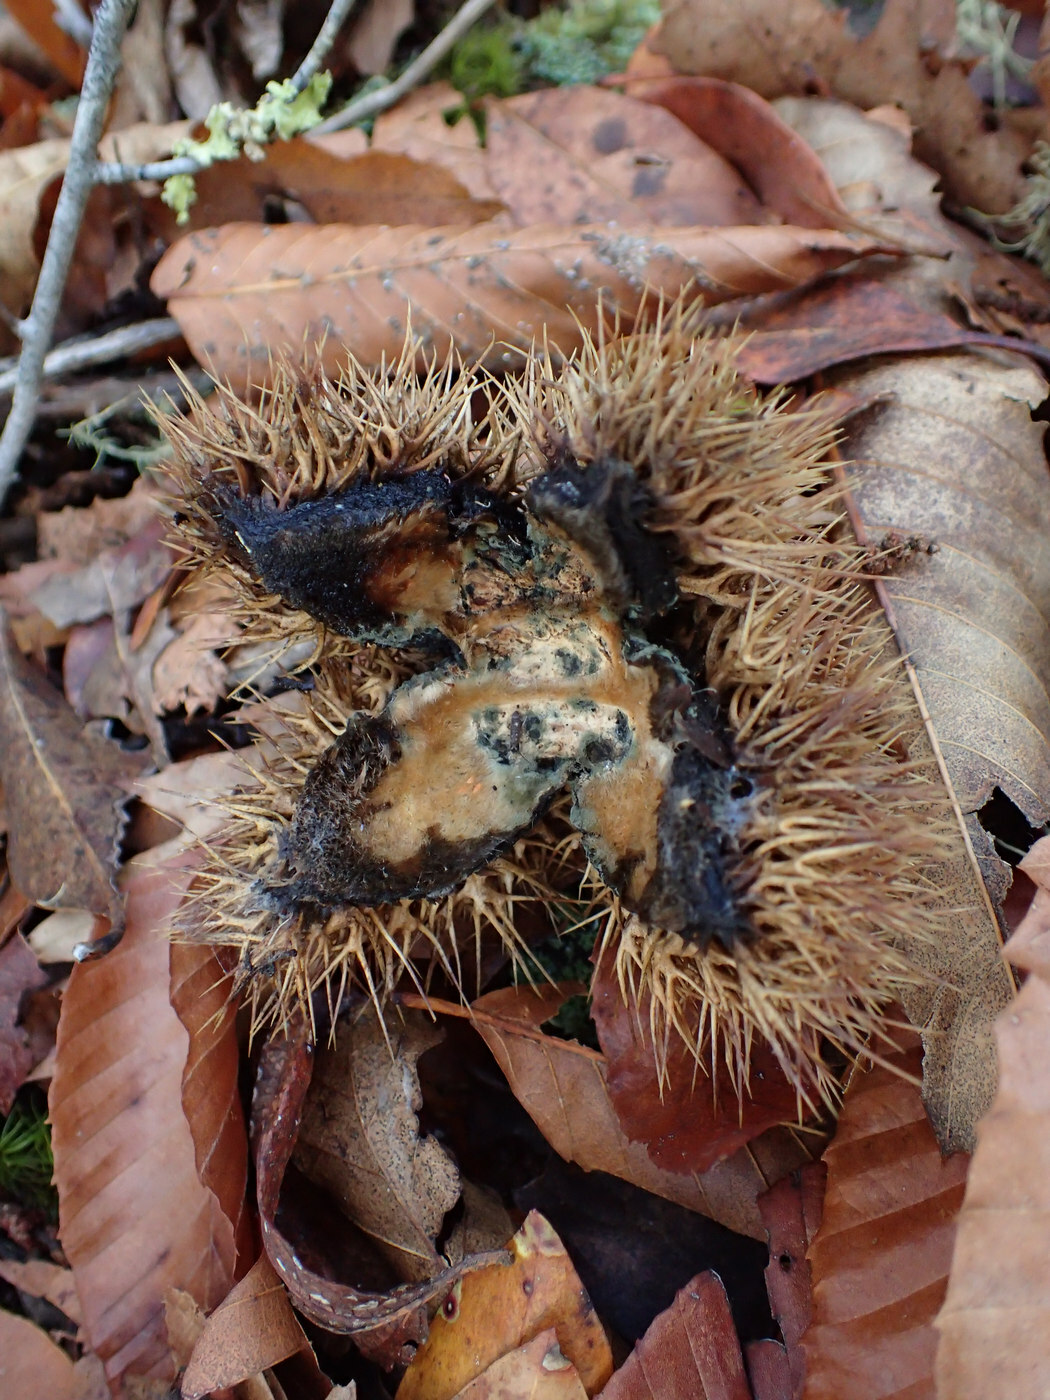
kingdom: Plantae
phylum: Tracheophyta
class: Magnoliopsida
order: Fagales
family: Fagaceae
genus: Castanea
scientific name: Castanea dentata
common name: American chestnut
